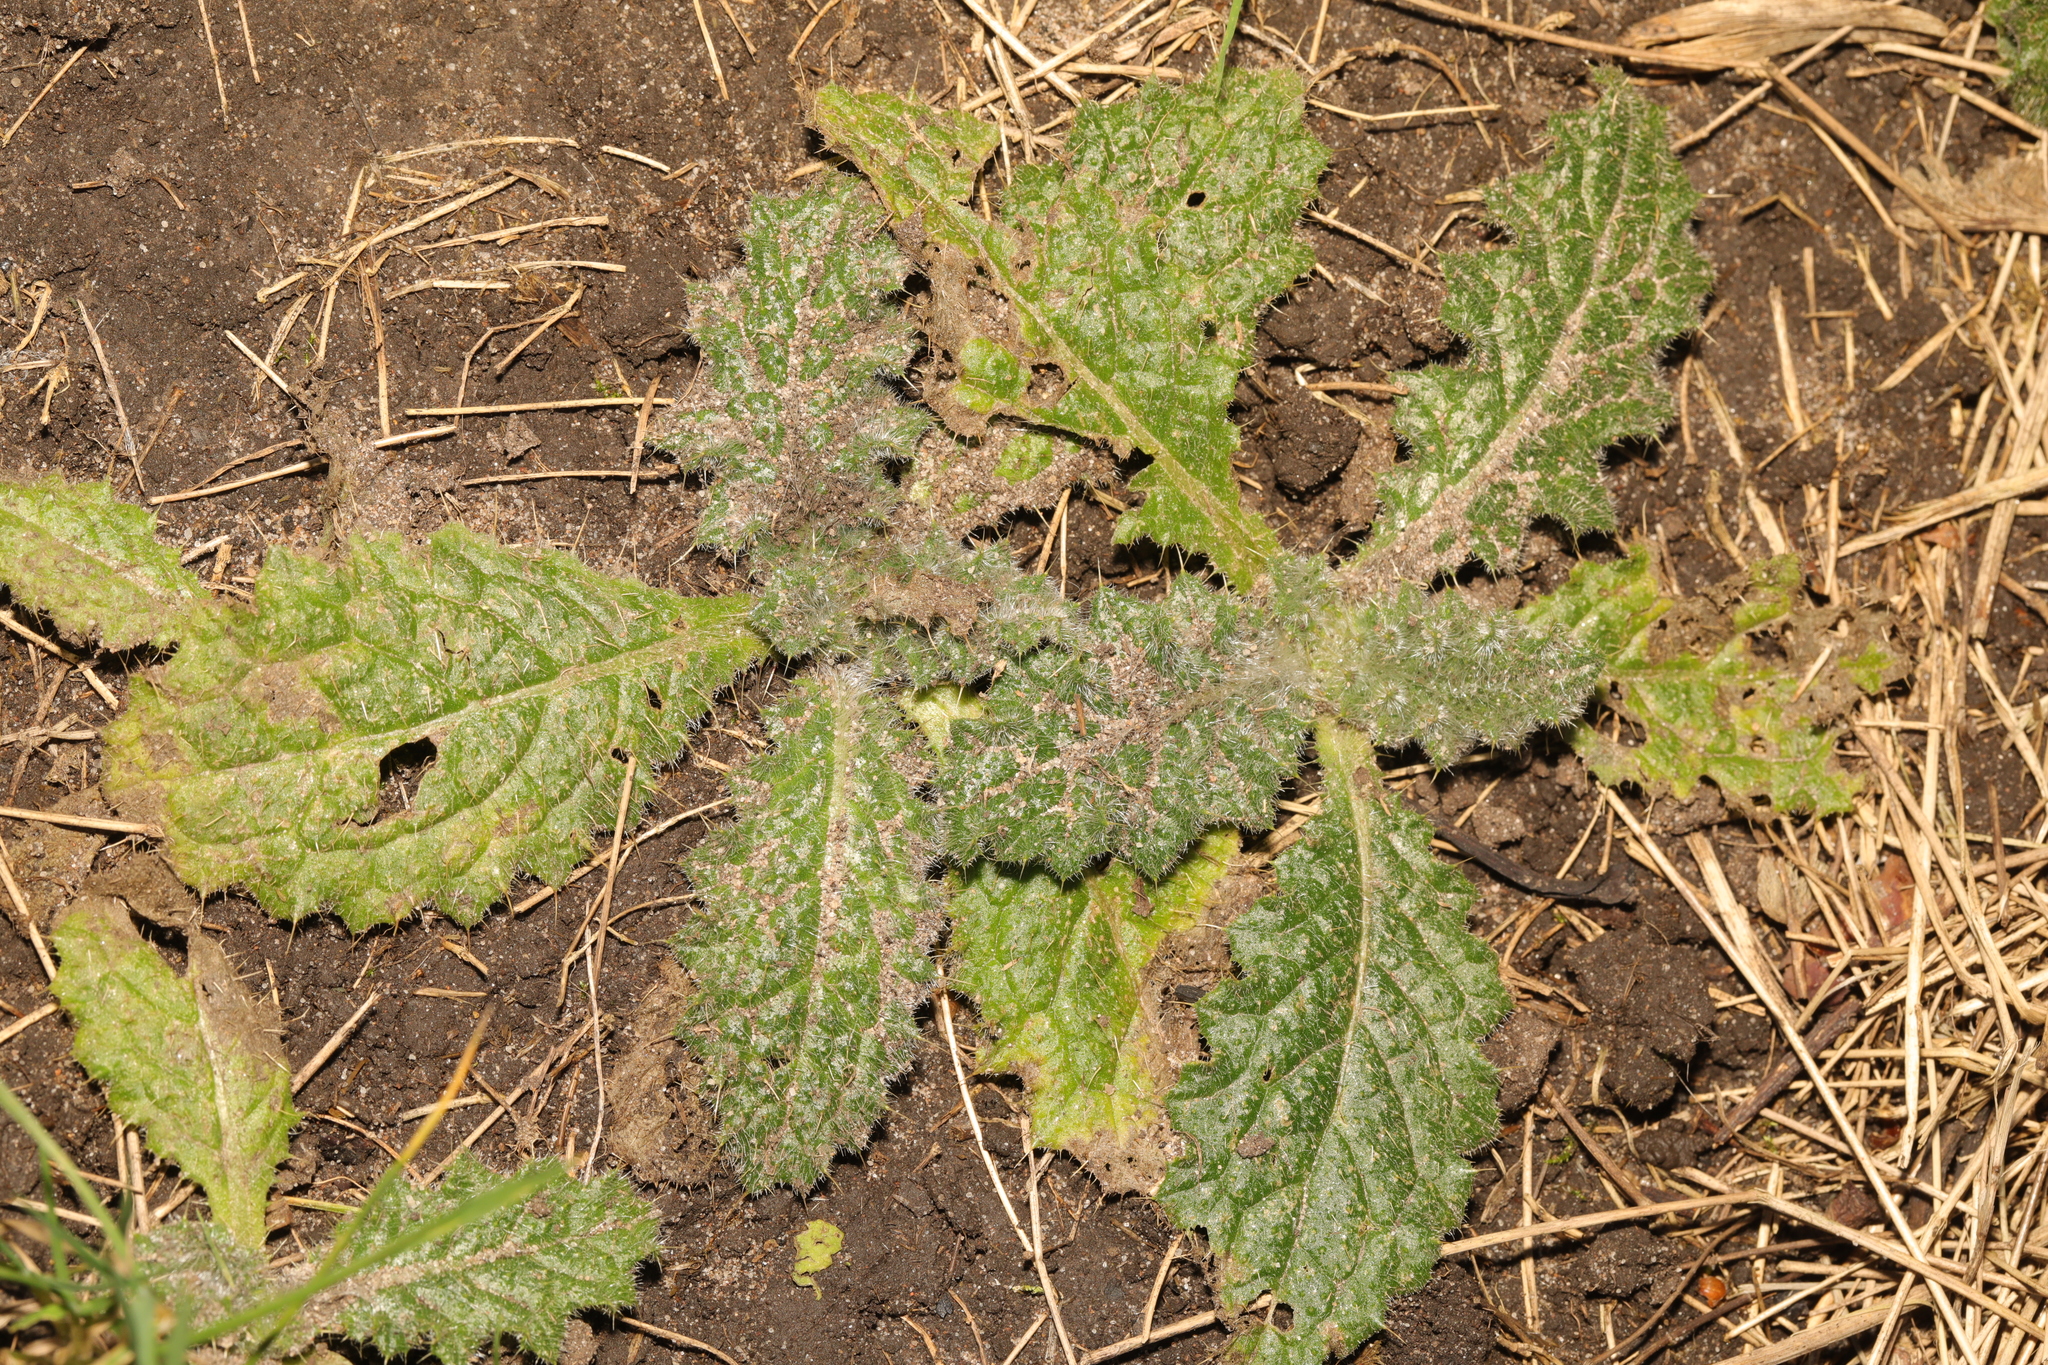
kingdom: Plantae
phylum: Tracheophyta
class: Magnoliopsida
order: Asterales
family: Asteraceae
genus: Cirsium
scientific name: Cirsium vulgare
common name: Bull thistle
